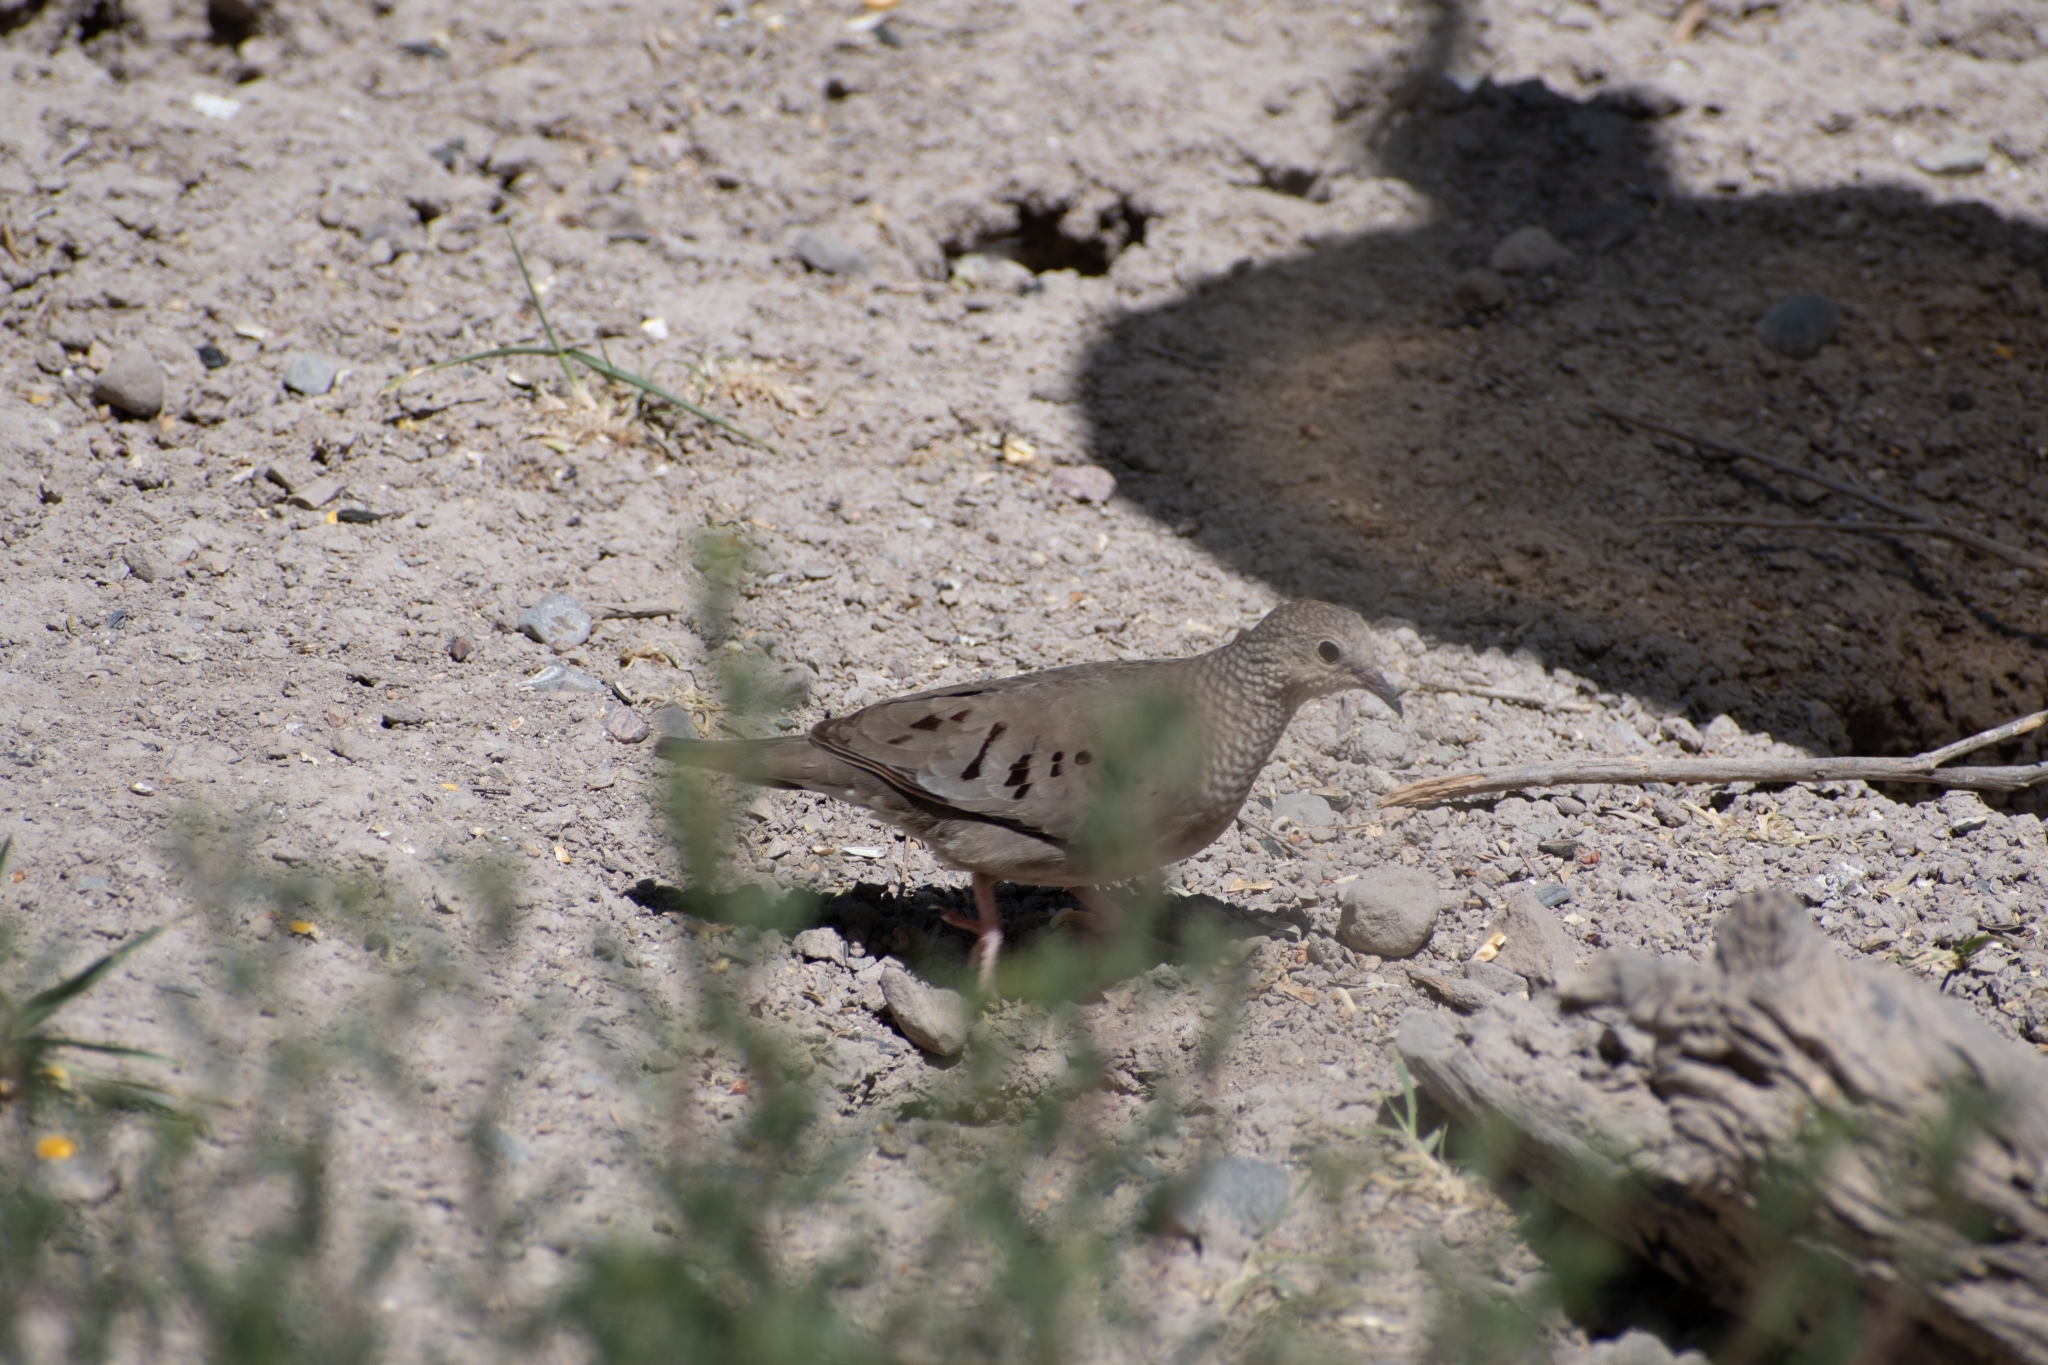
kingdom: Animalia
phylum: Chordata
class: Aves
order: Columbiformes
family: Columbidae
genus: Columbina
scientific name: Columbina passerina
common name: Common ground-dove
